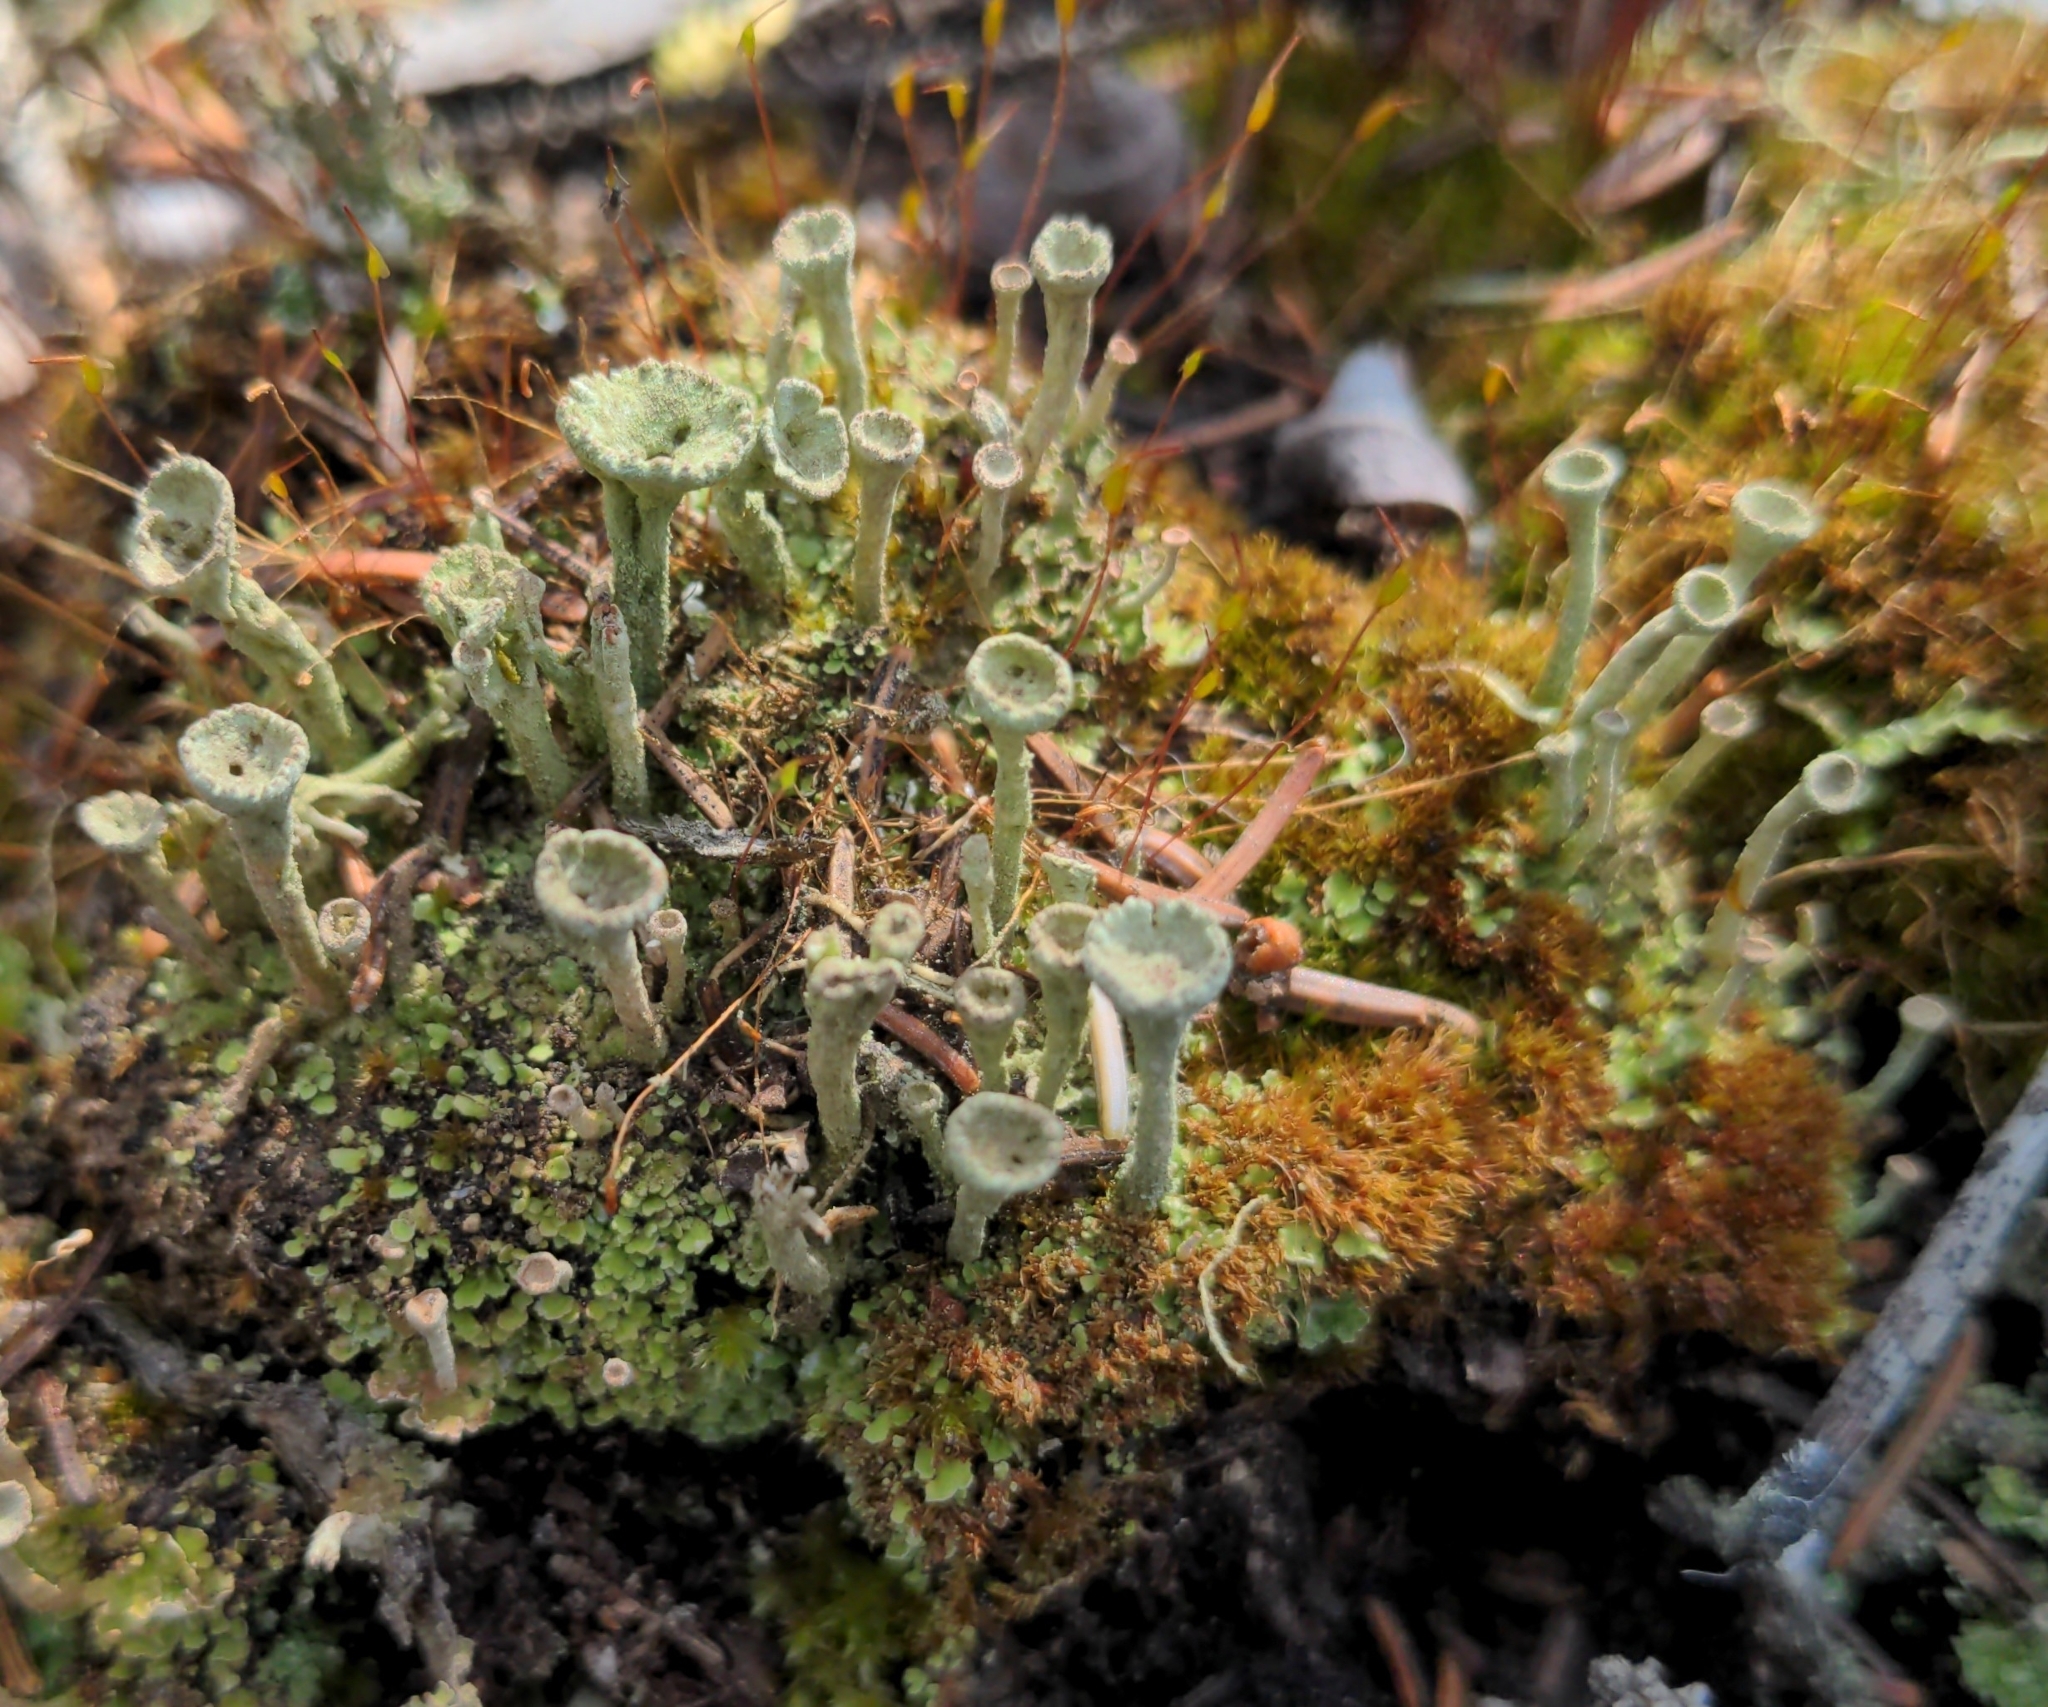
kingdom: Fungi
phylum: Ascomycota
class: Lecanoromycetes
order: Lecanorales
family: Cladoniaceae
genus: Cladonia
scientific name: Cladonia fimbriata
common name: Powdered trumpet lichen
